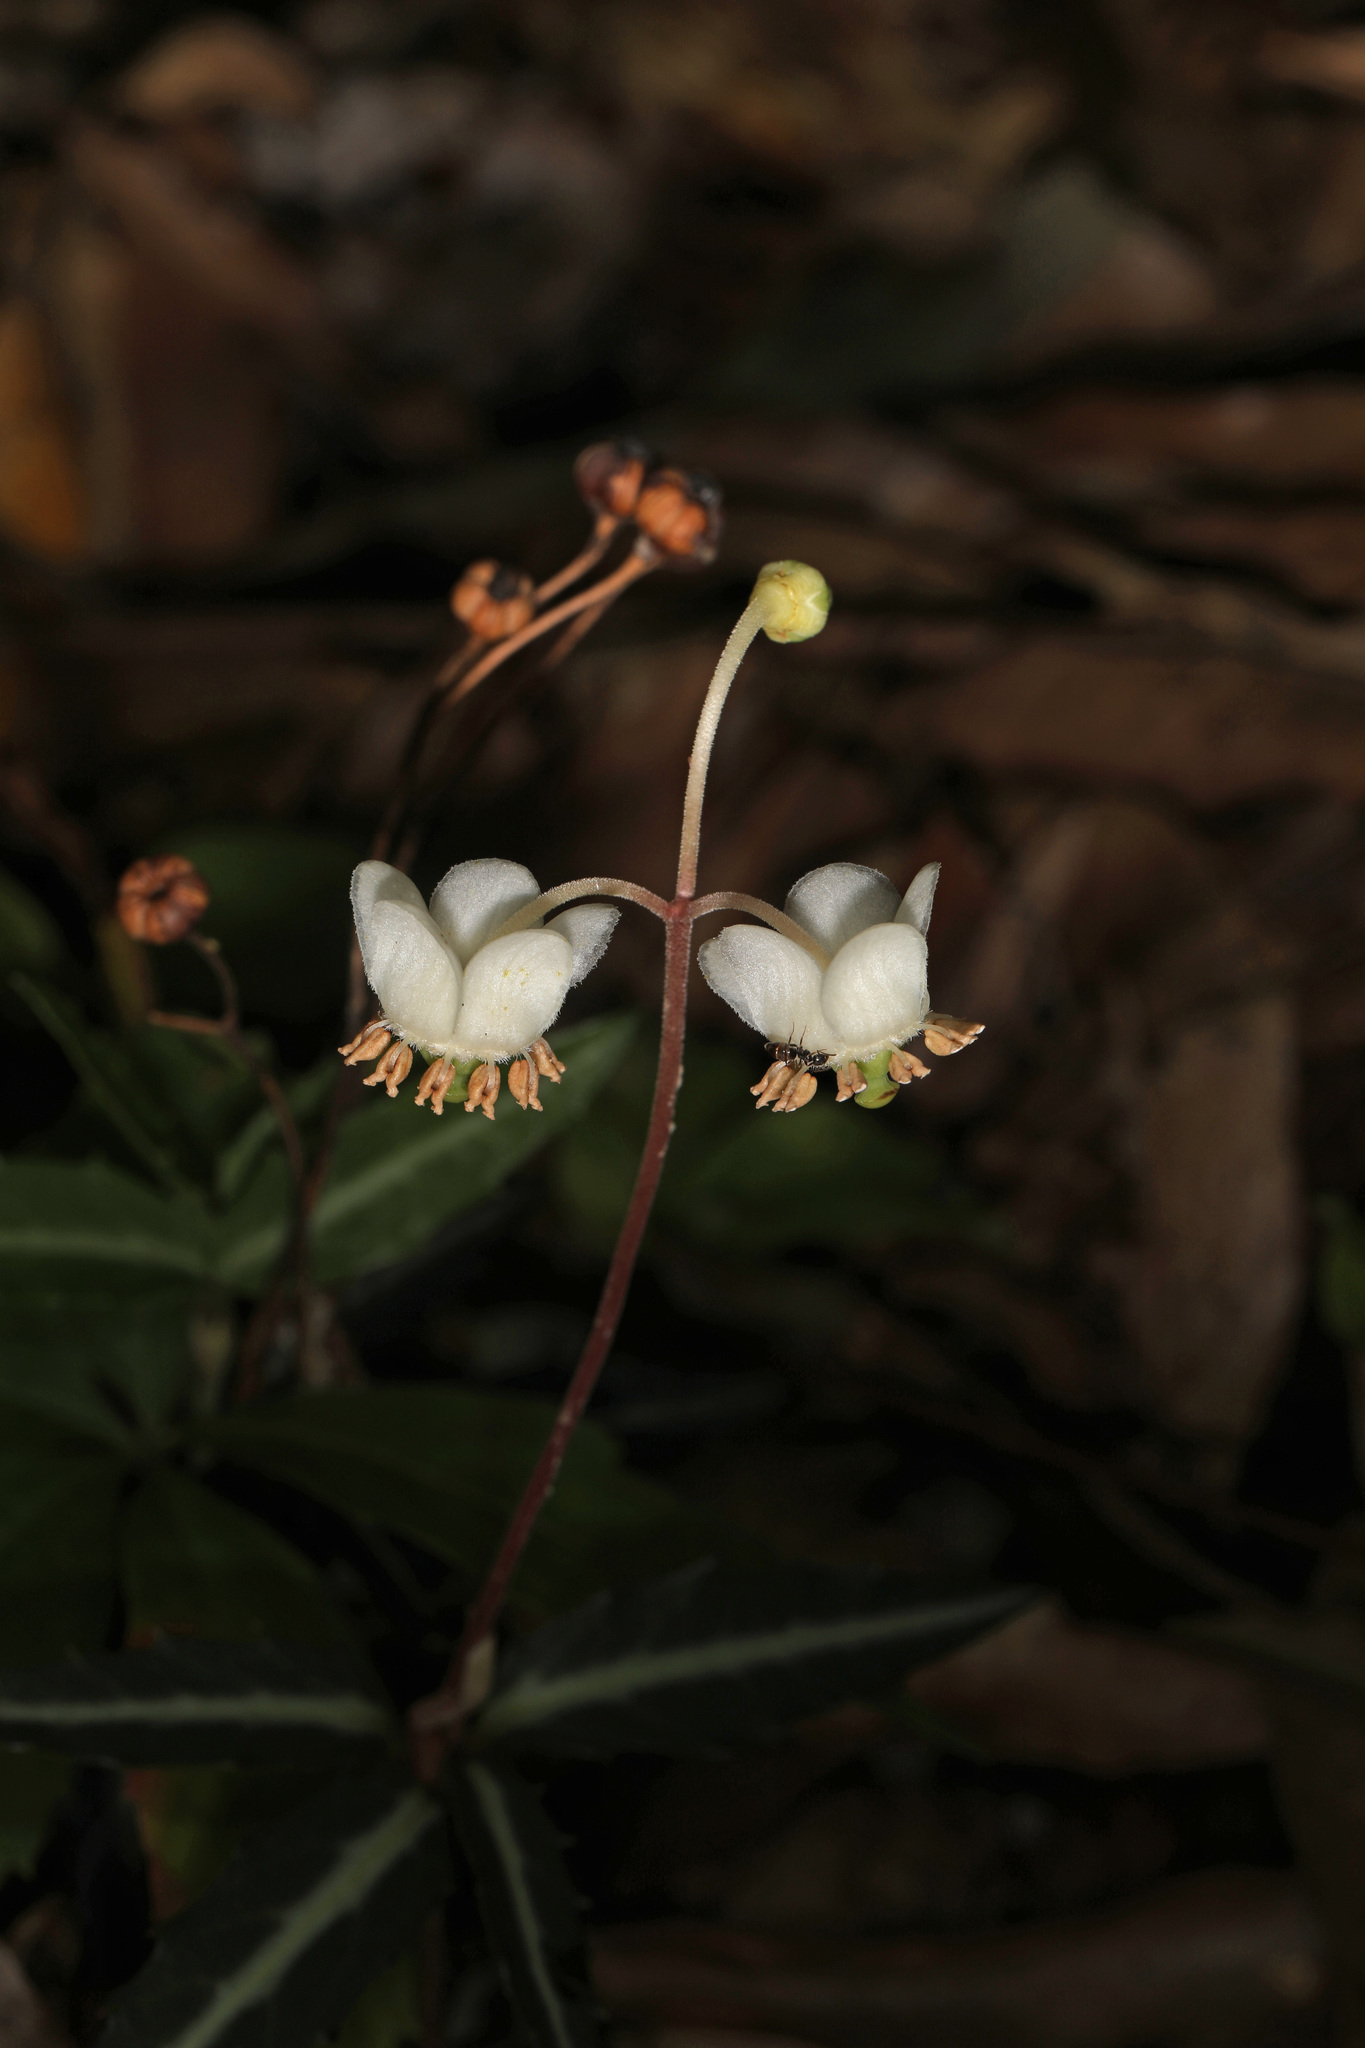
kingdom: Plantae
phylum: Tracheophyta
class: Magnoliopsida
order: Ericales
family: Ericaceae
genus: Chimaphila
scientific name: Chimaphila maculata
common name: Spotted pipsissewa
